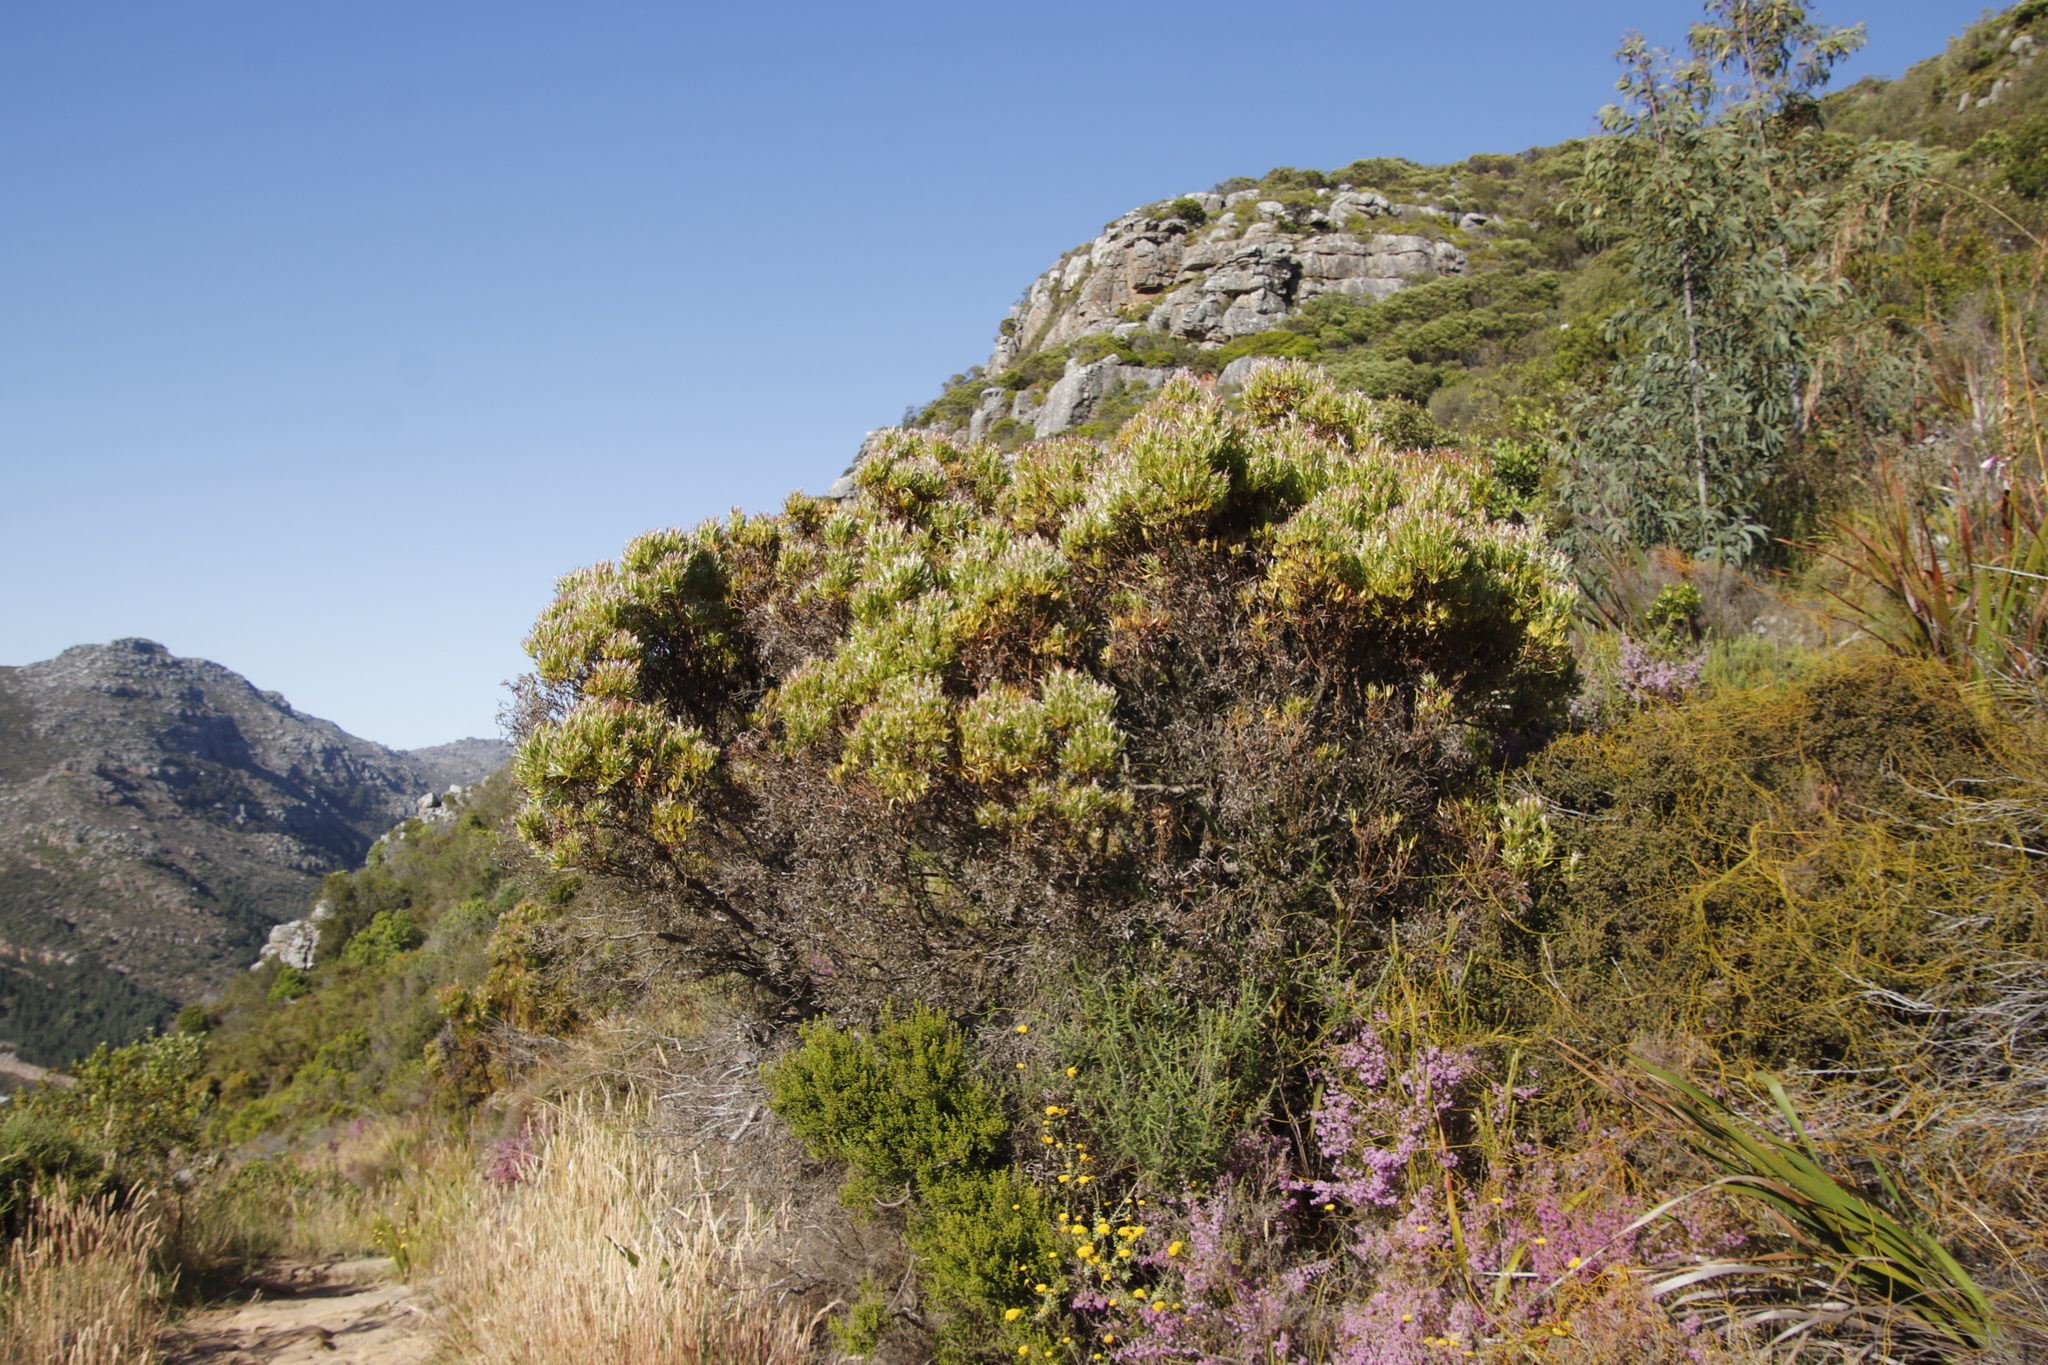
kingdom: Plantae
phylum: Tracheophyta
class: Magnoliopsida
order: Proteales
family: Proteaceae
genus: Leucadendron
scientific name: Leucadendron xanthoconus
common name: Sickle-leaf conebush
